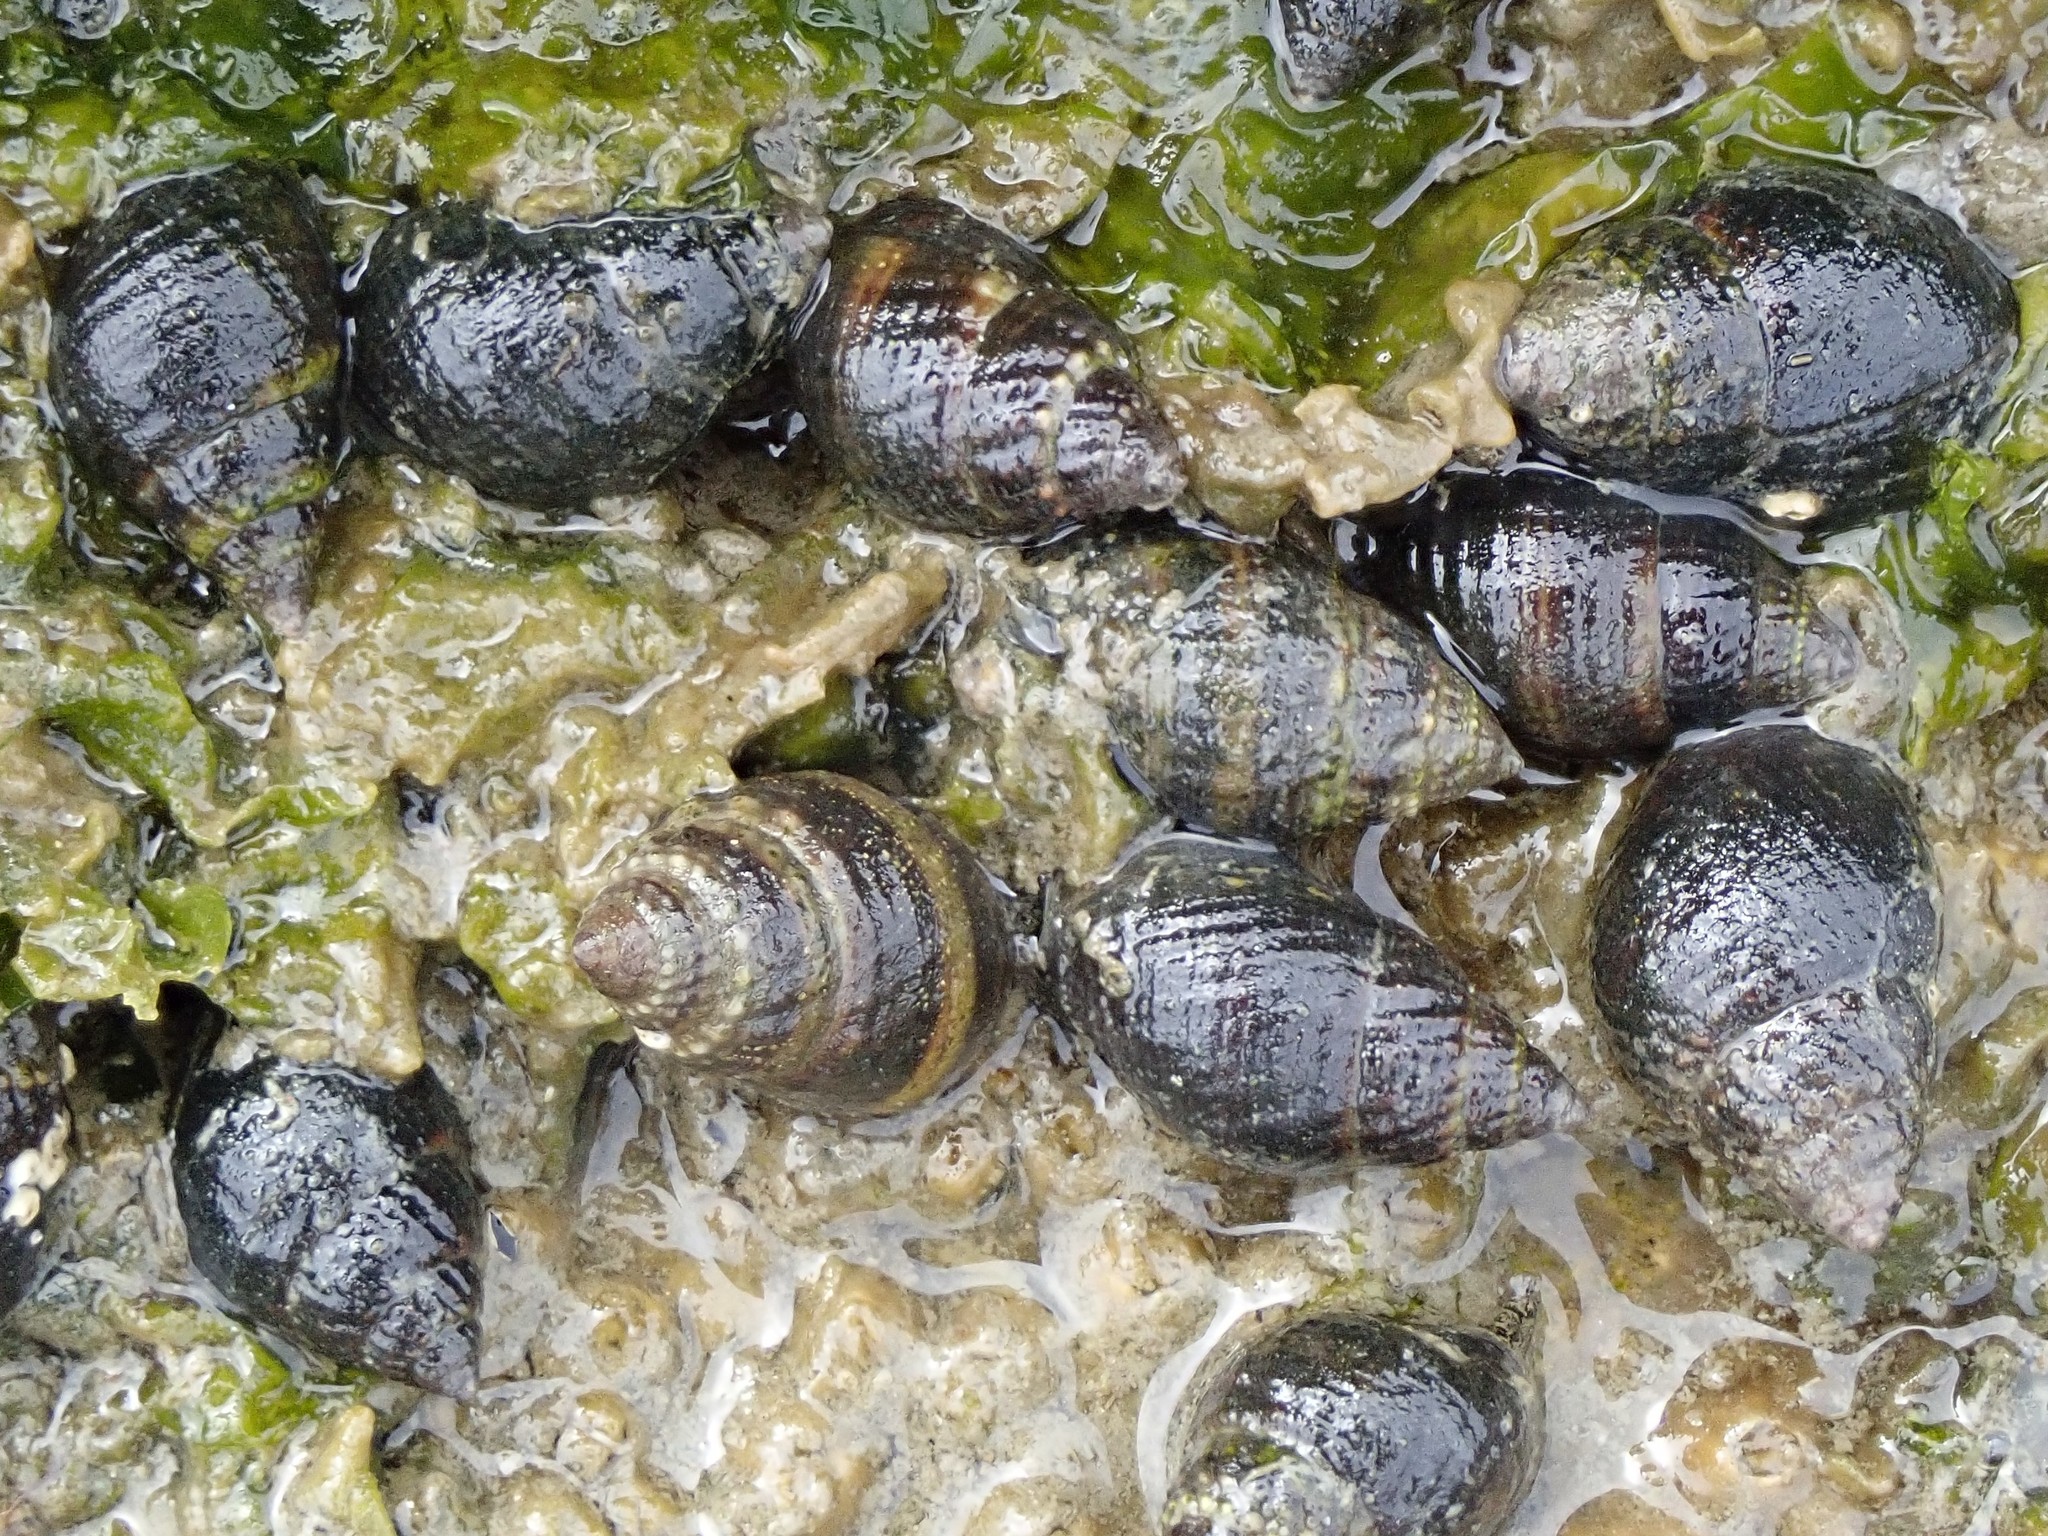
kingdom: Animalia
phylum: Mollusca
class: Gastropoda
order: Neogastropoda
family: Nassariidae
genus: Ilyanassa
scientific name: Ilyanassa obsoleta
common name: Eastern mudsnail
